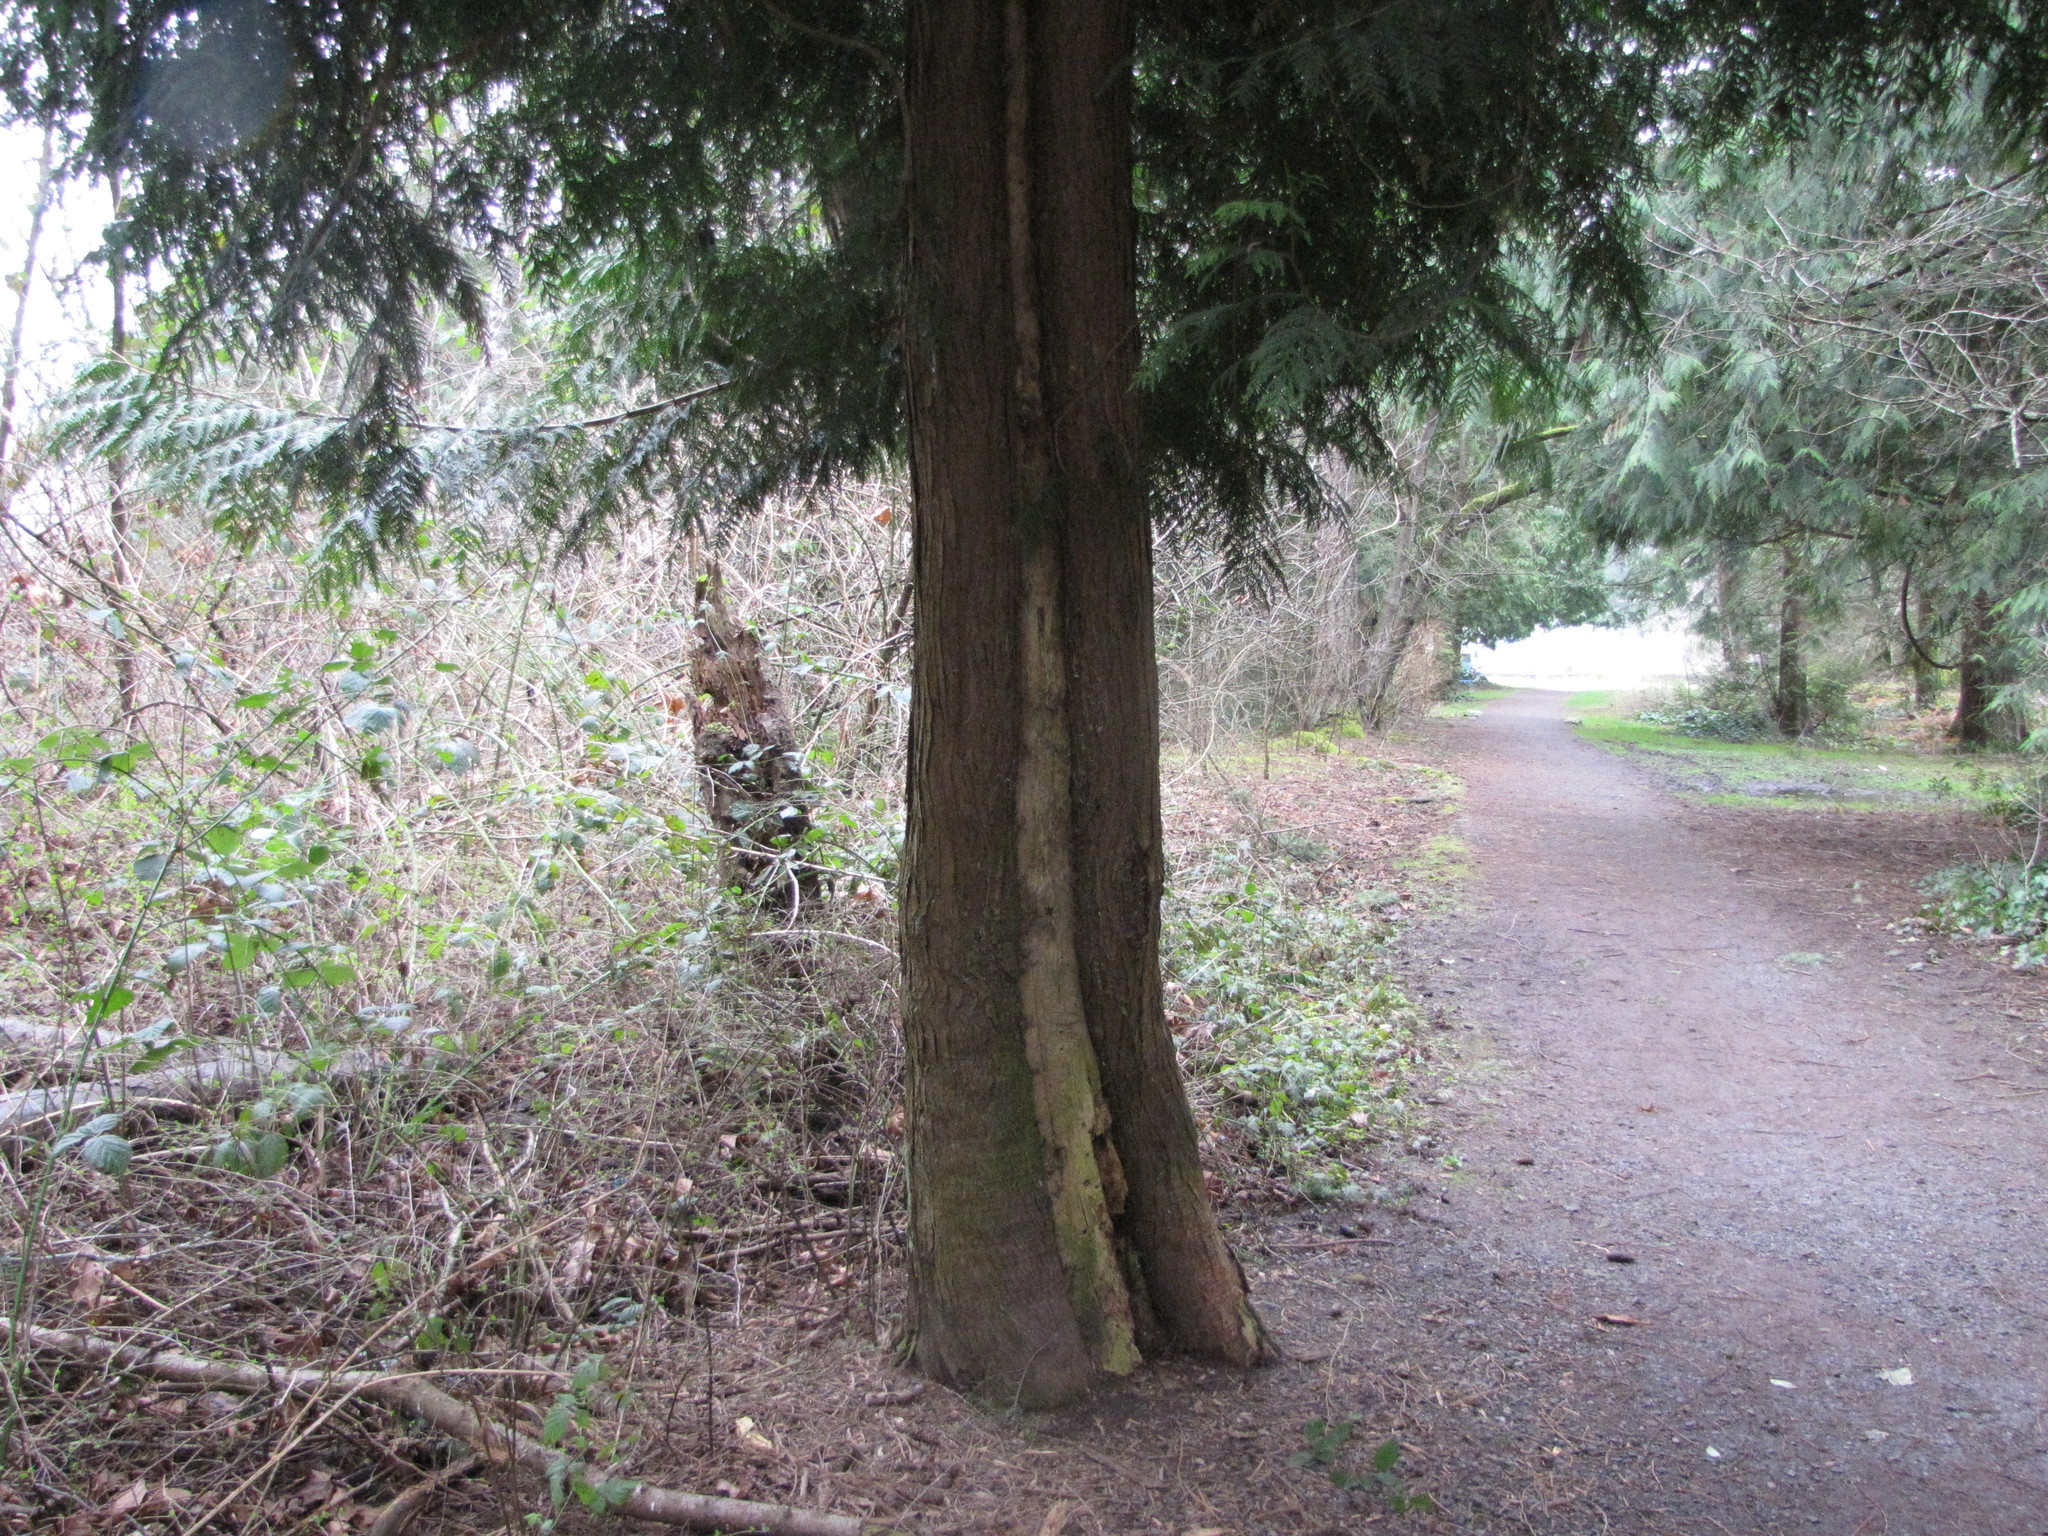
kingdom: Plantae
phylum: Tracheophyta
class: Pinopsida
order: Pinales
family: Cupressaceae
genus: Thuja
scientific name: Thuja plicata
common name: Western red-cedar
